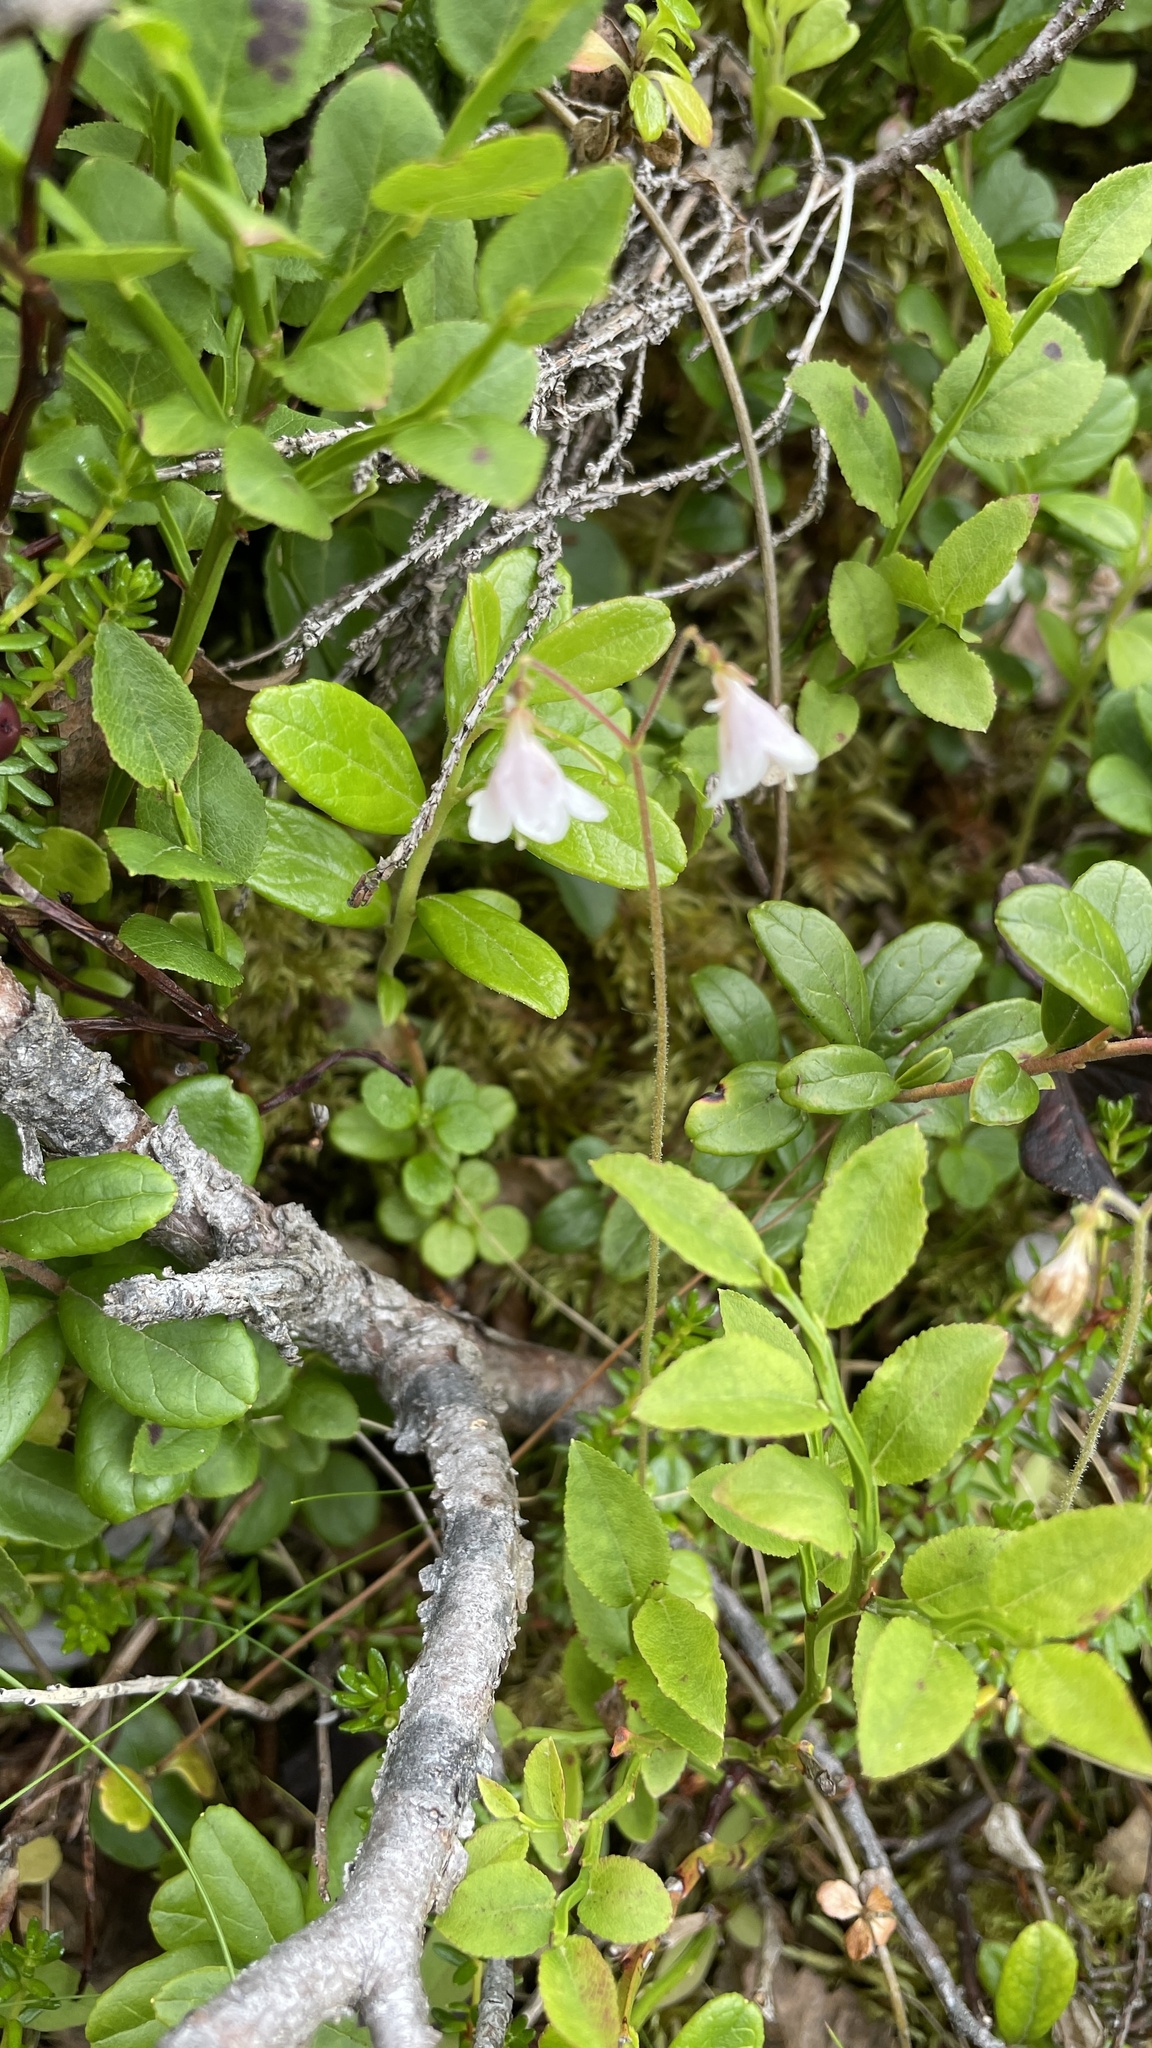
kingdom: Plantae
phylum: Tracheophyta
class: Magnoliopsida
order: Dipsacales
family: Caprifoliaceae
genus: Linnaea
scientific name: Linnaea borealis
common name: Twinflower
